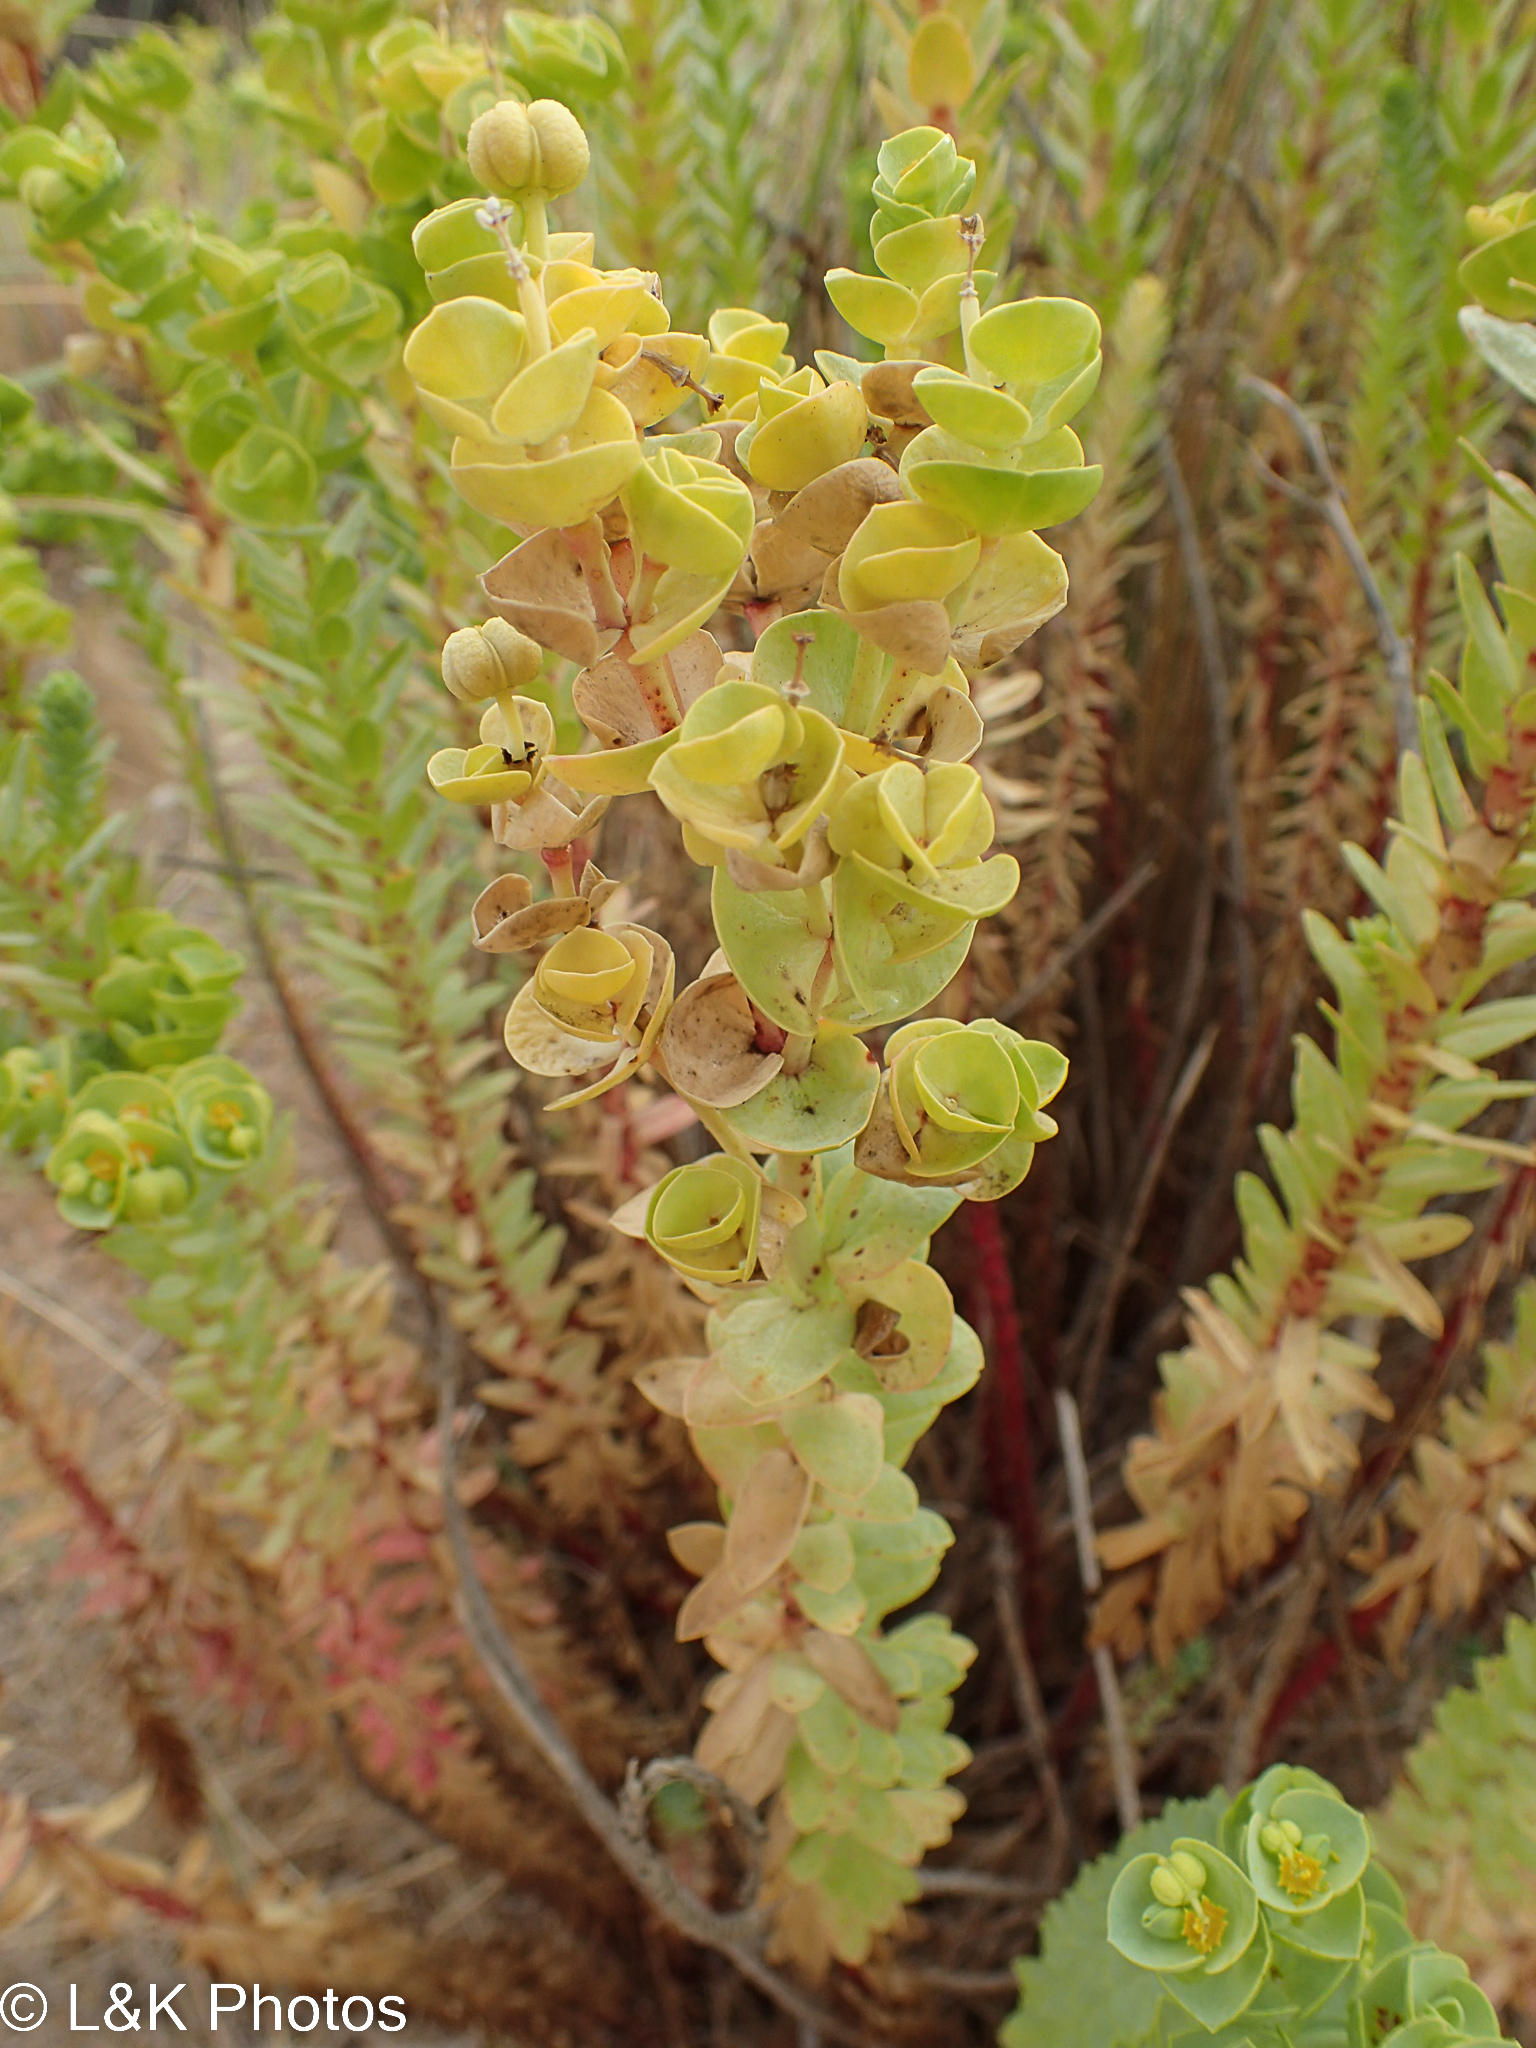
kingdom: Plantae
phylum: Tracheophyta
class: Magnoliopsida
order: Malpighiales
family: Euphorbiaceae
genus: Euphorbia
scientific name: Euphorbia paralias
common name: Sea spurge
